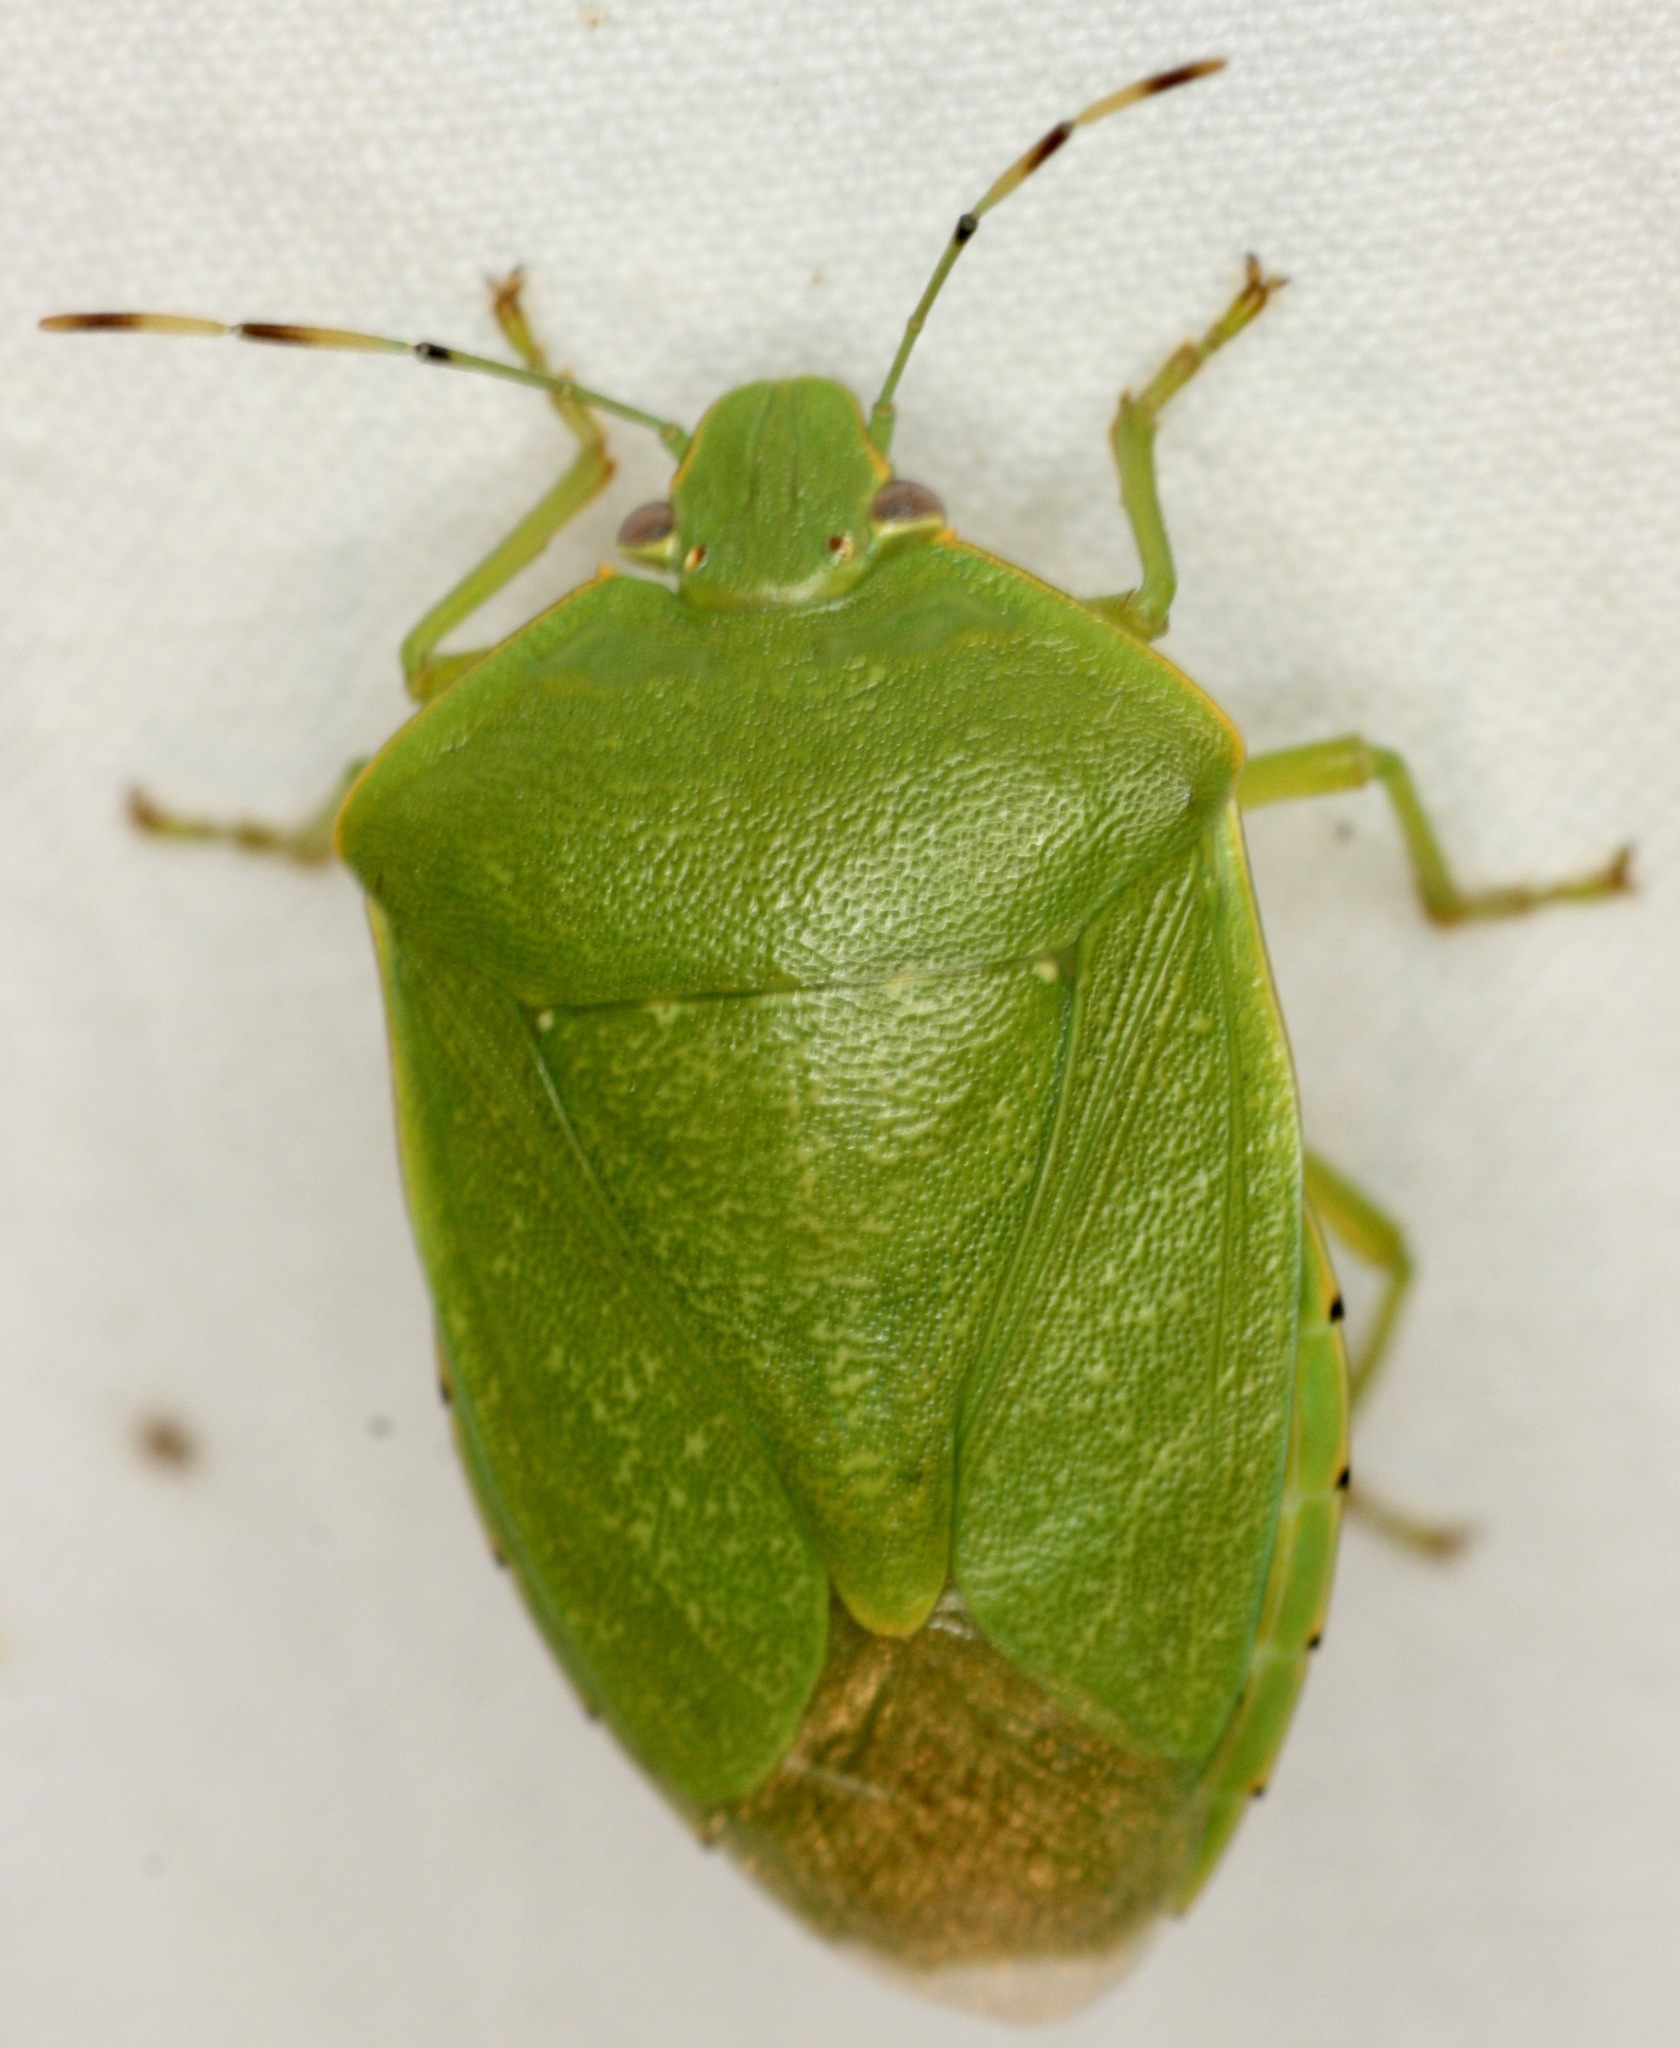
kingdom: Animalia
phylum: Arthropoda
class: Insecta
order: Hemiptera
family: Pentatomidae
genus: Chinavia
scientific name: Chinavia hilaris
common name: Green stink bug
